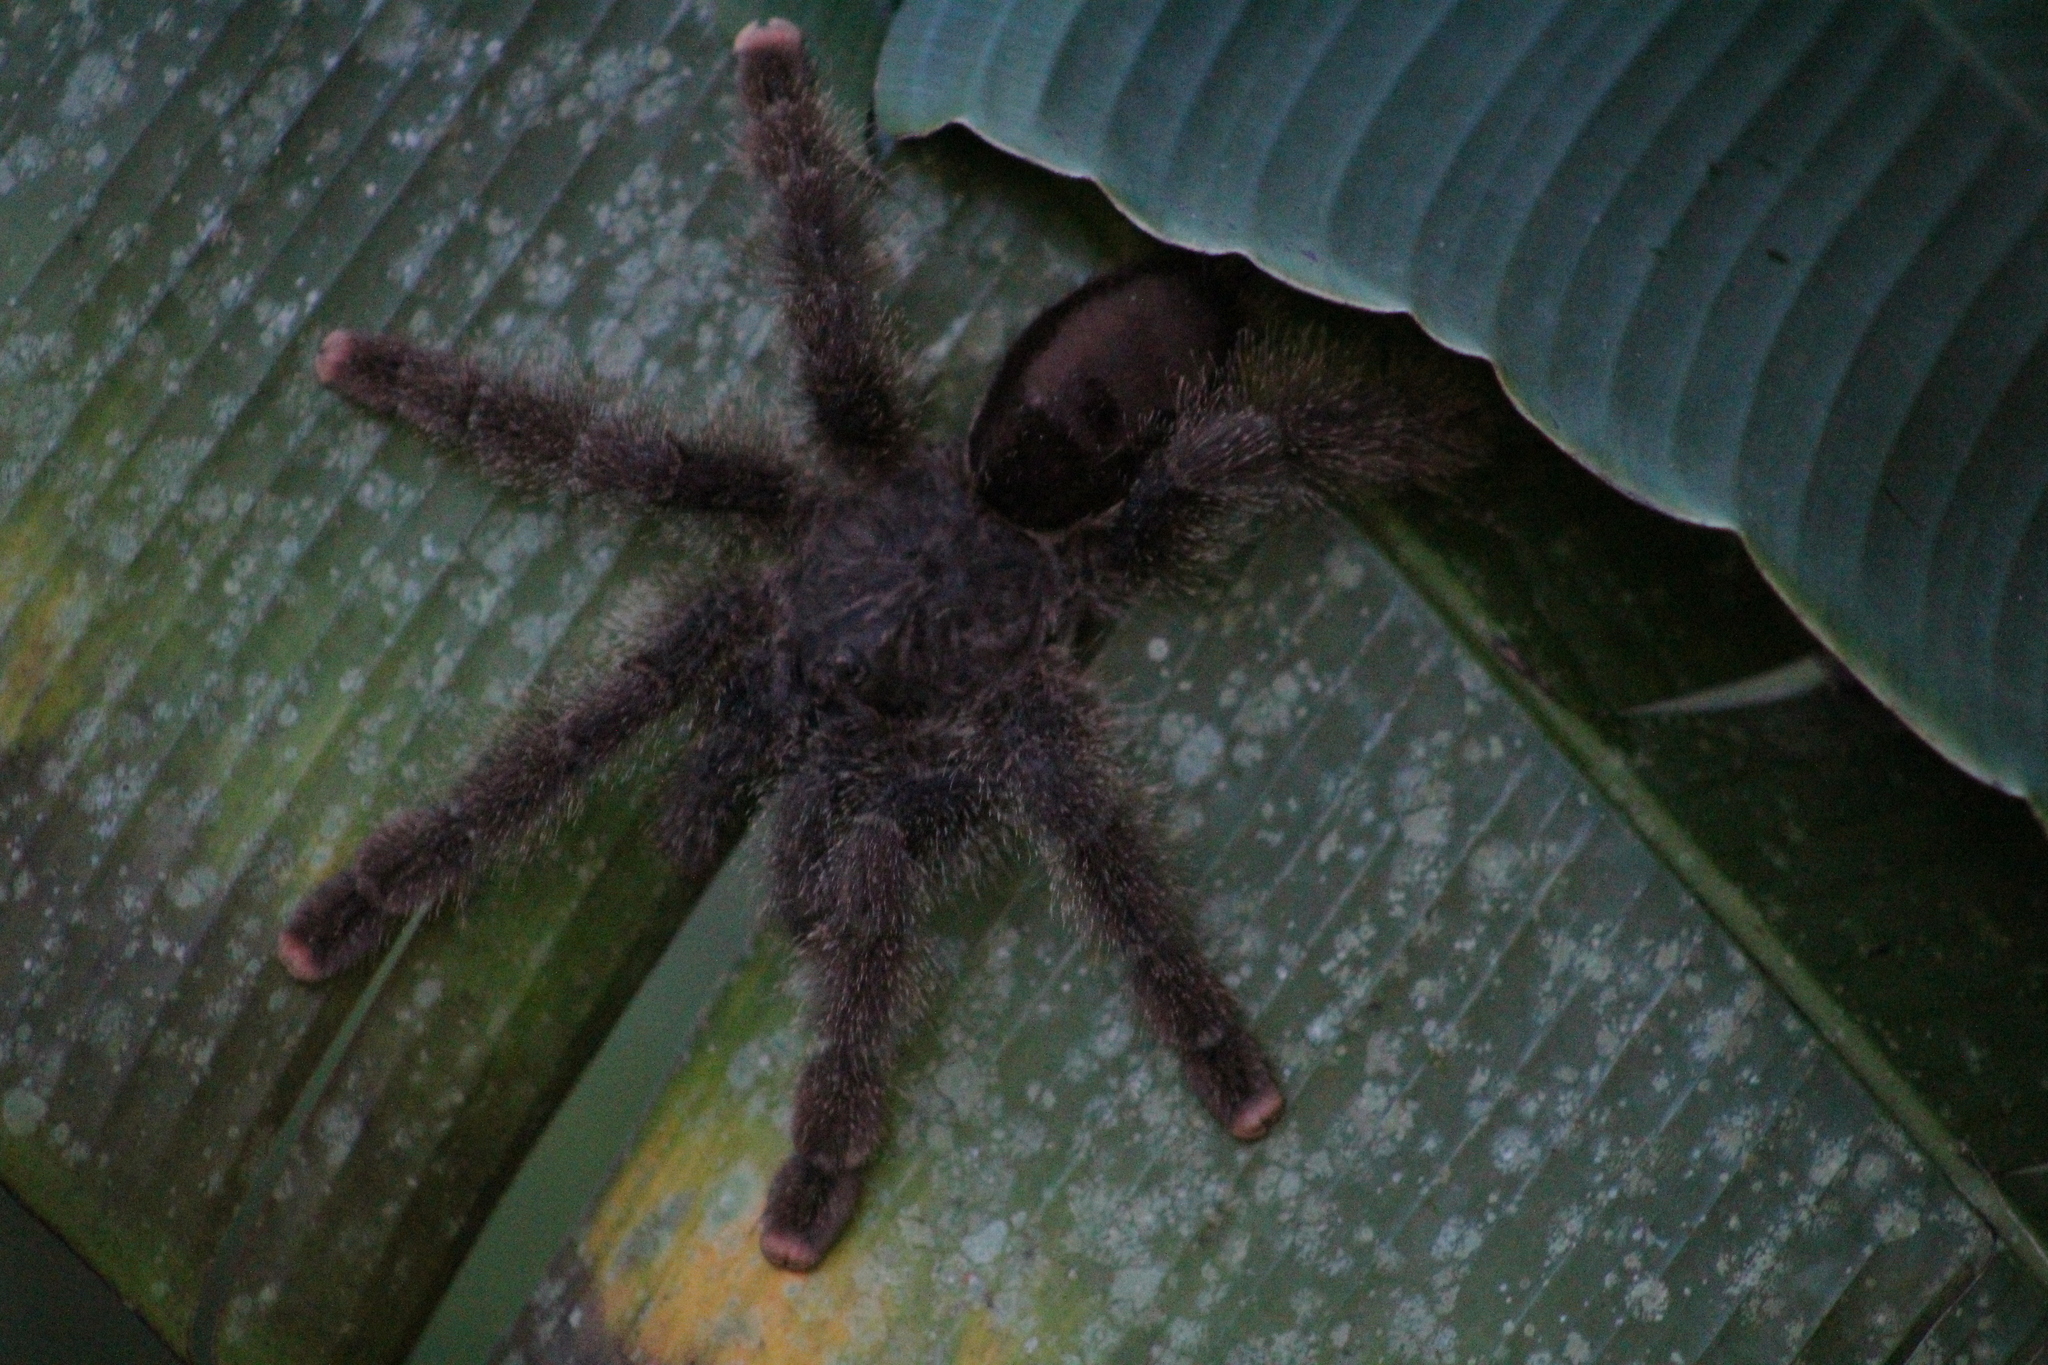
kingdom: Animalia
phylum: Arthropoda
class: Arachnida
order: Araneae
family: Theraphosidae
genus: Avicularia
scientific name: Avicularia juruensis
